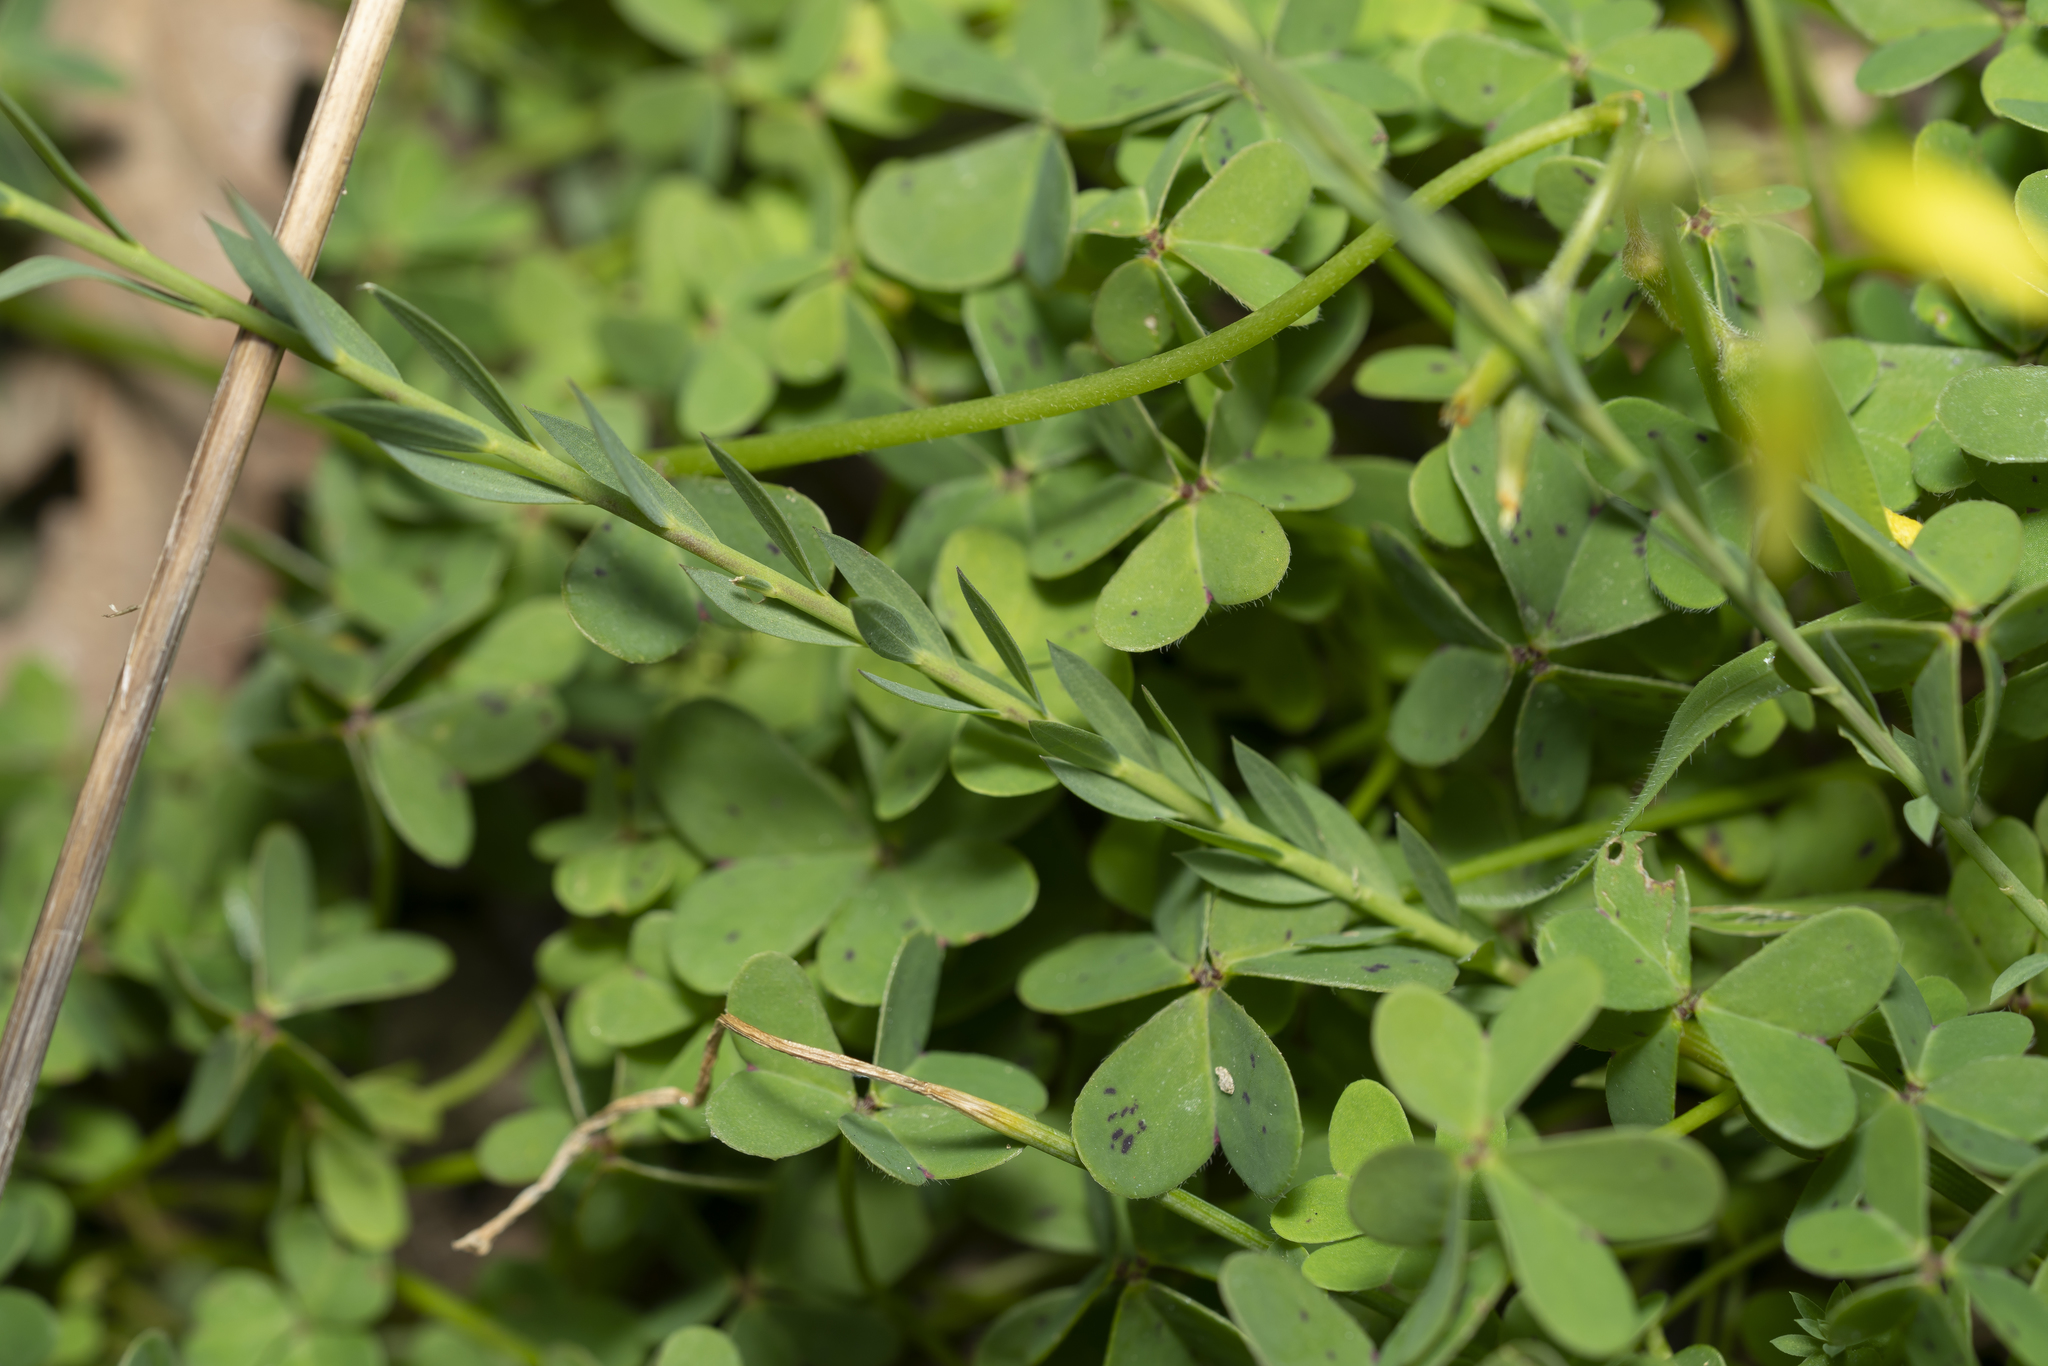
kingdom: Plantae
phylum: Tracheophyta
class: Magnoliopsida
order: Malpighiales
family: Linaceae
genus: Linum
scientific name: Linum bienne
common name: Pale flax
